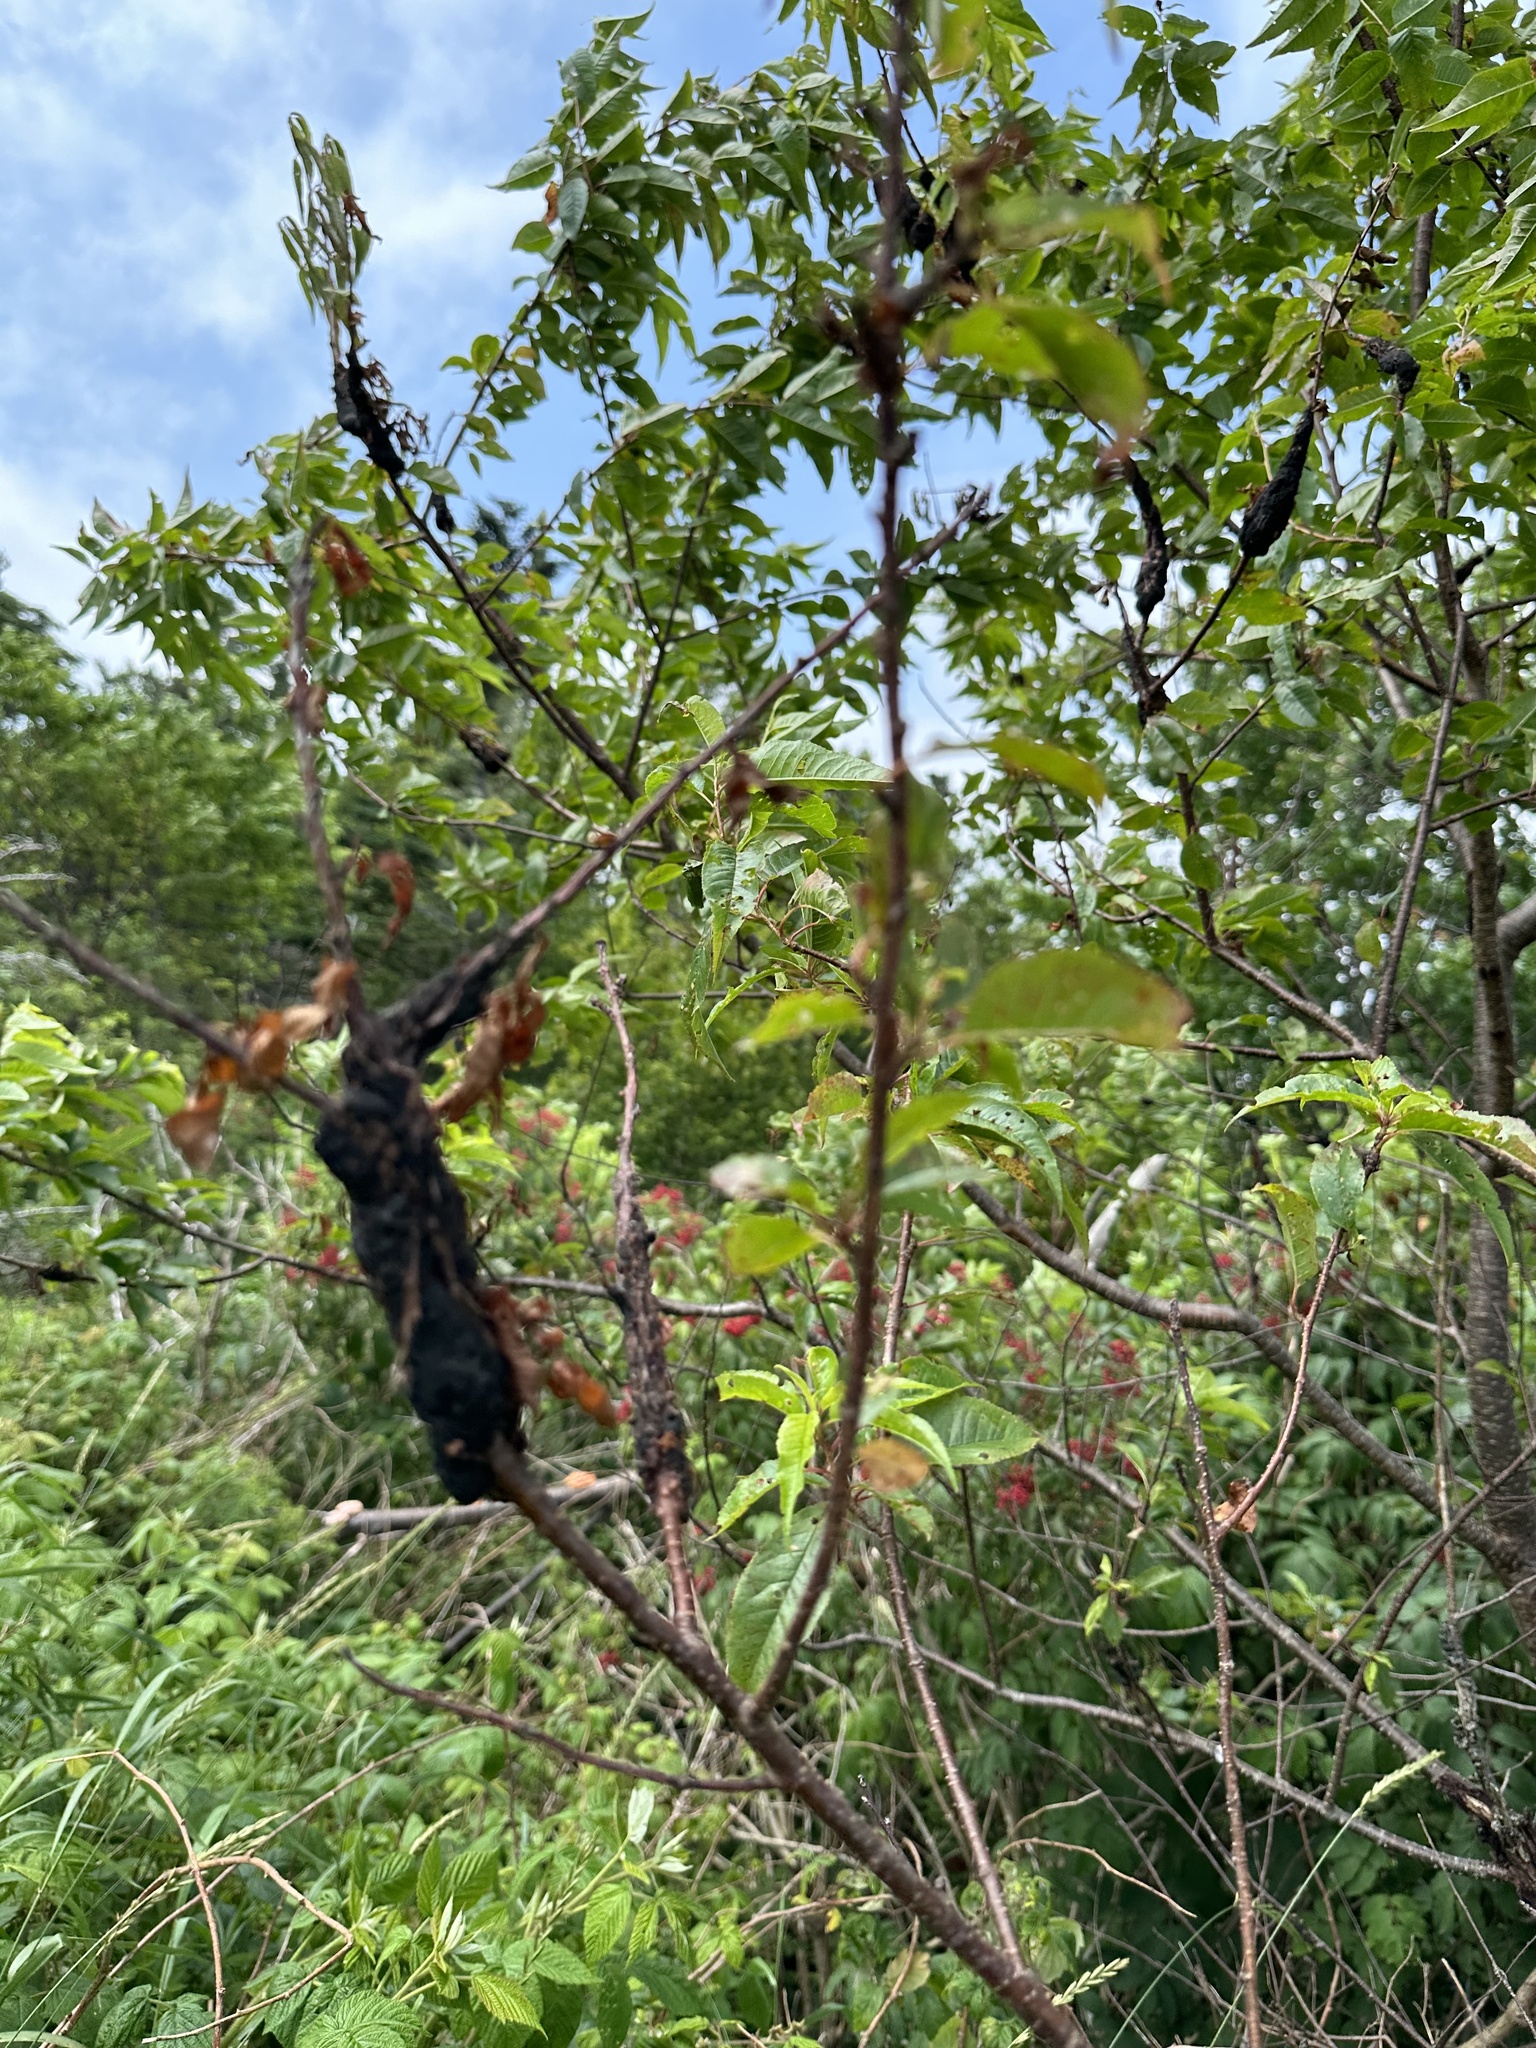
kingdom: Fungi
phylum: Ascomycota
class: Dothideomycetes
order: Venturiales
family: Venturiaceae
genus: Apiosporina
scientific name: Apiosporina morbosa
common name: Black knot
